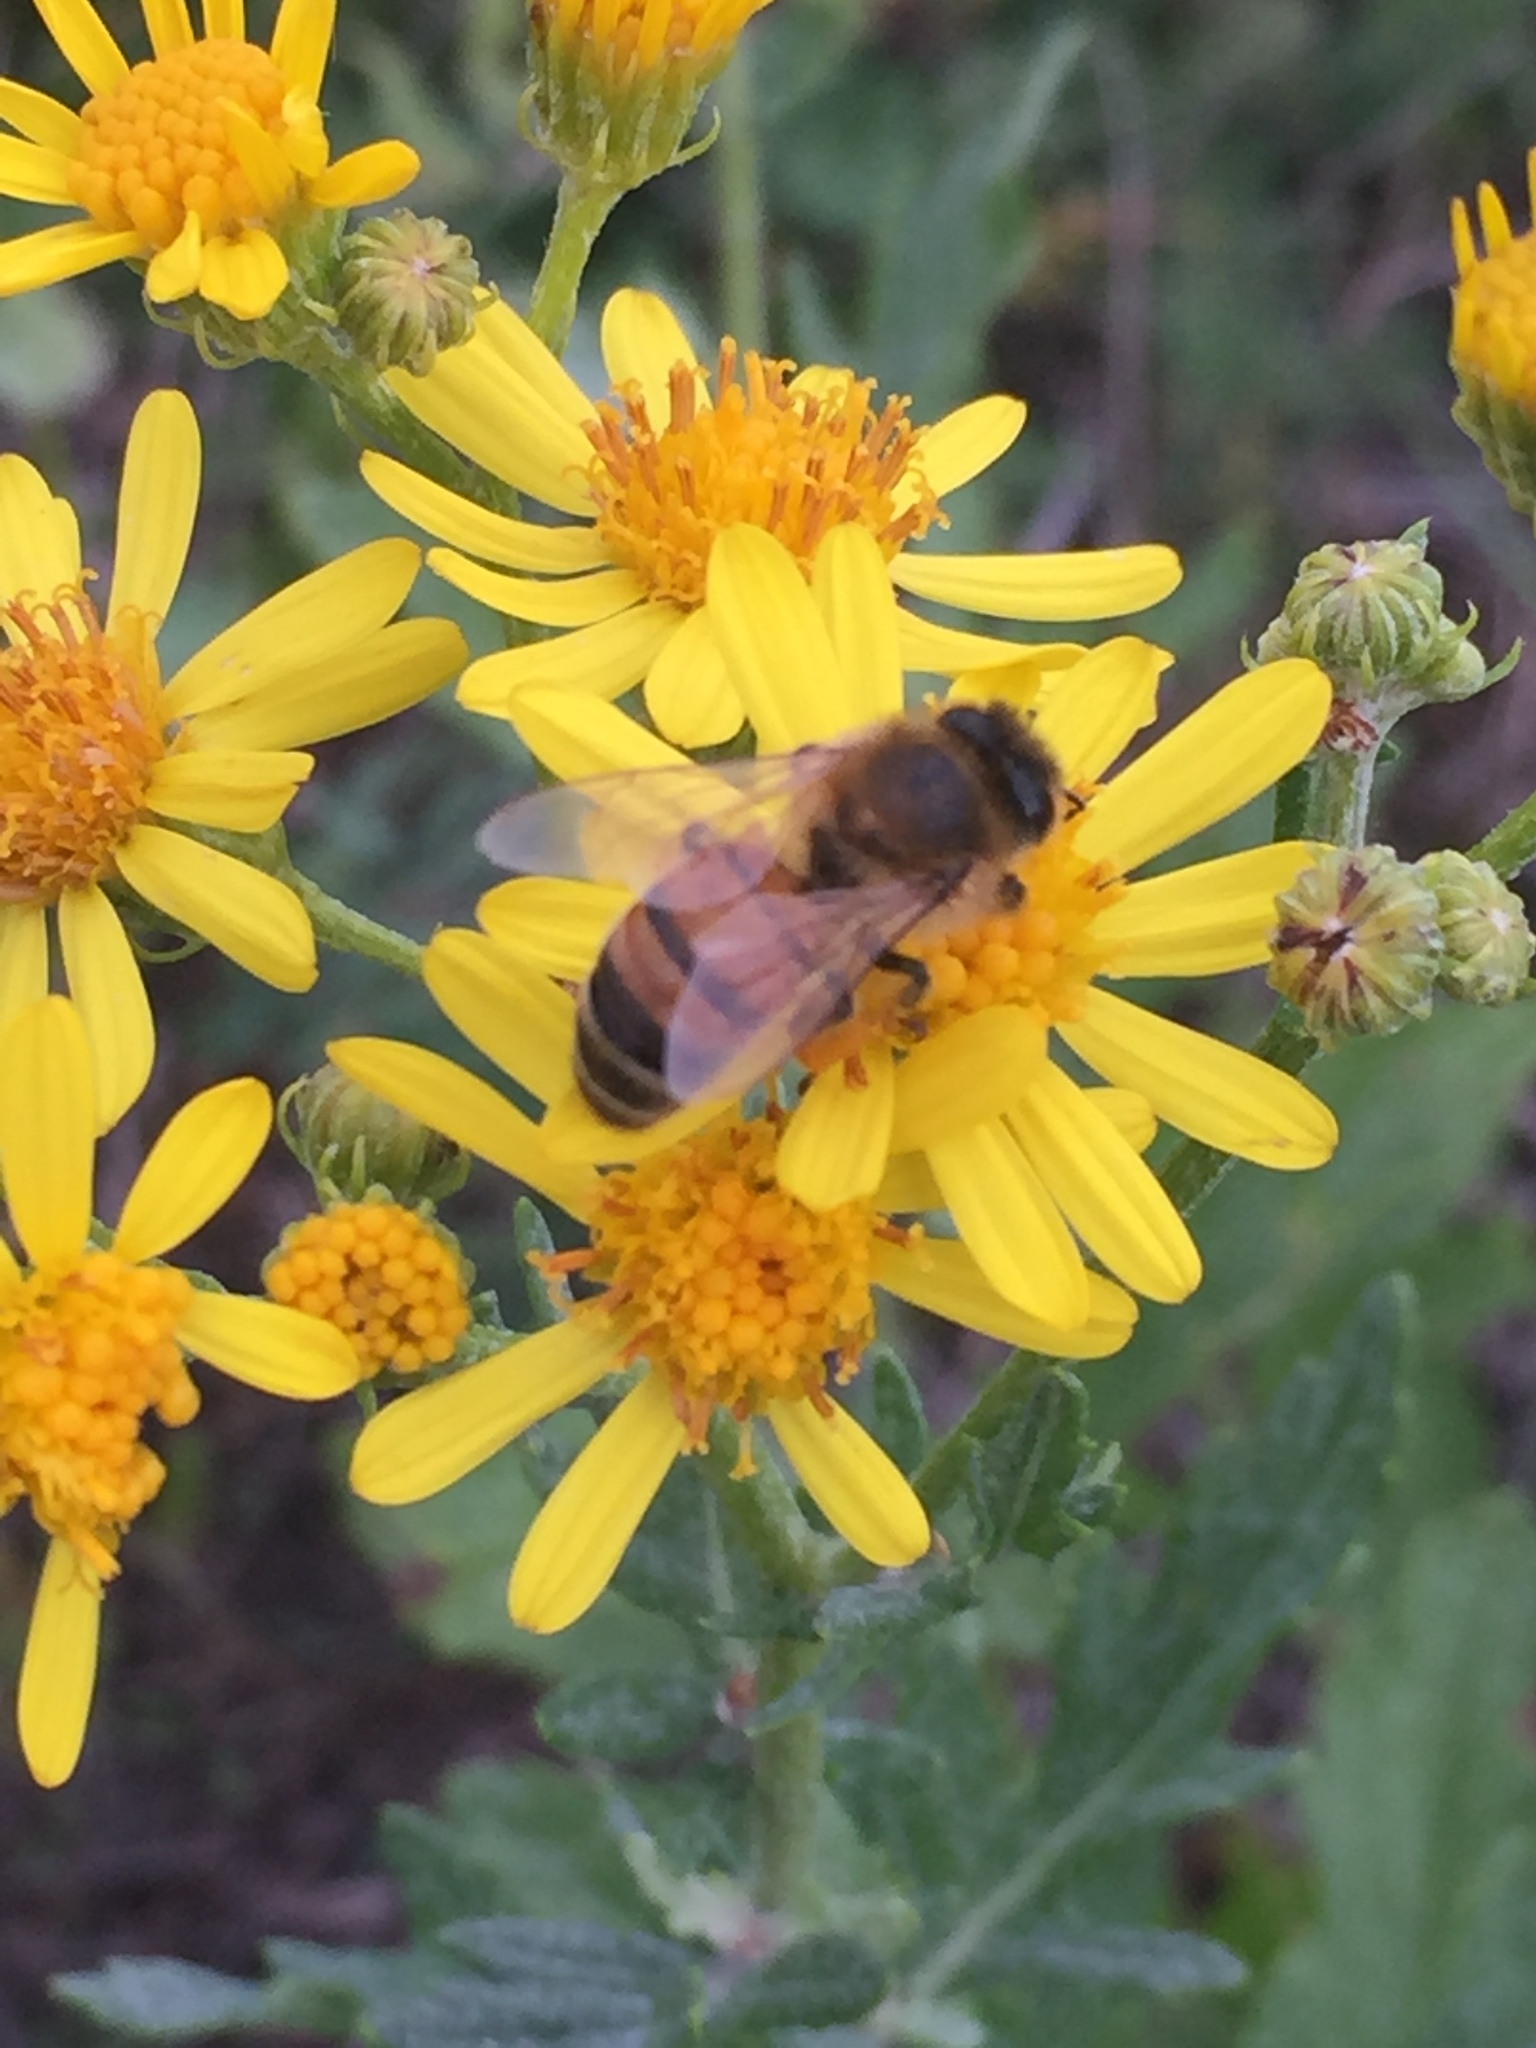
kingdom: Animalia
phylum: Arthropoda
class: Insecta
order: Hymenoptera
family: Apidae
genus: Apis
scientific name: Apis mellifera
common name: Honey bee
